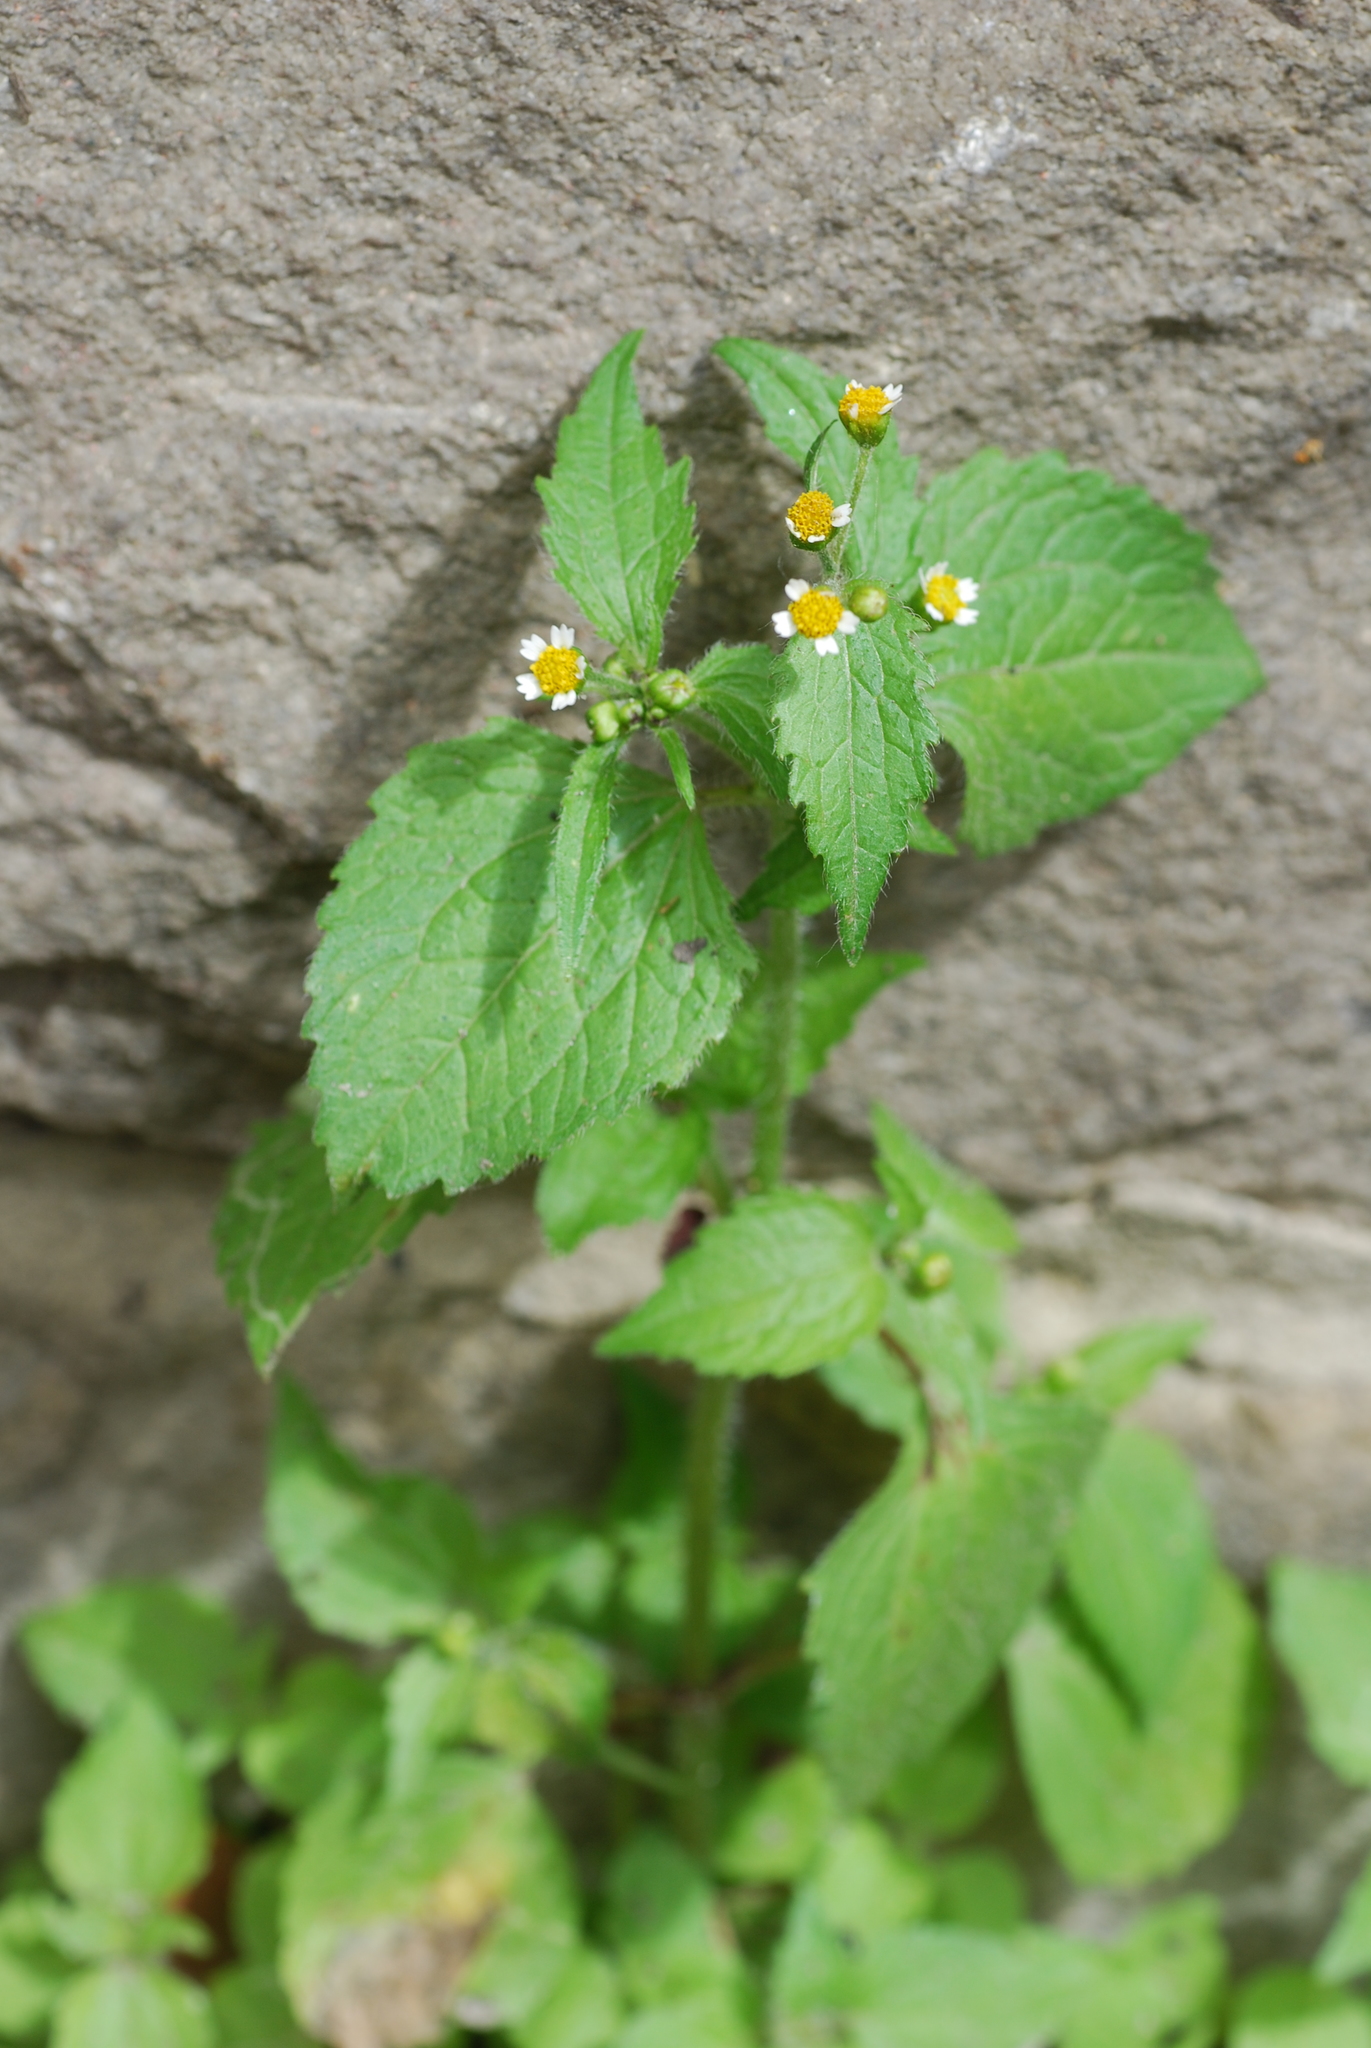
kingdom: Plantae
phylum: Tracheophyta
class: Magnoliopsida
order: Asterales
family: Asteraceae
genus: Galinsoga
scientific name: Galinsoga quadriradiata
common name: Shaggy soldier
